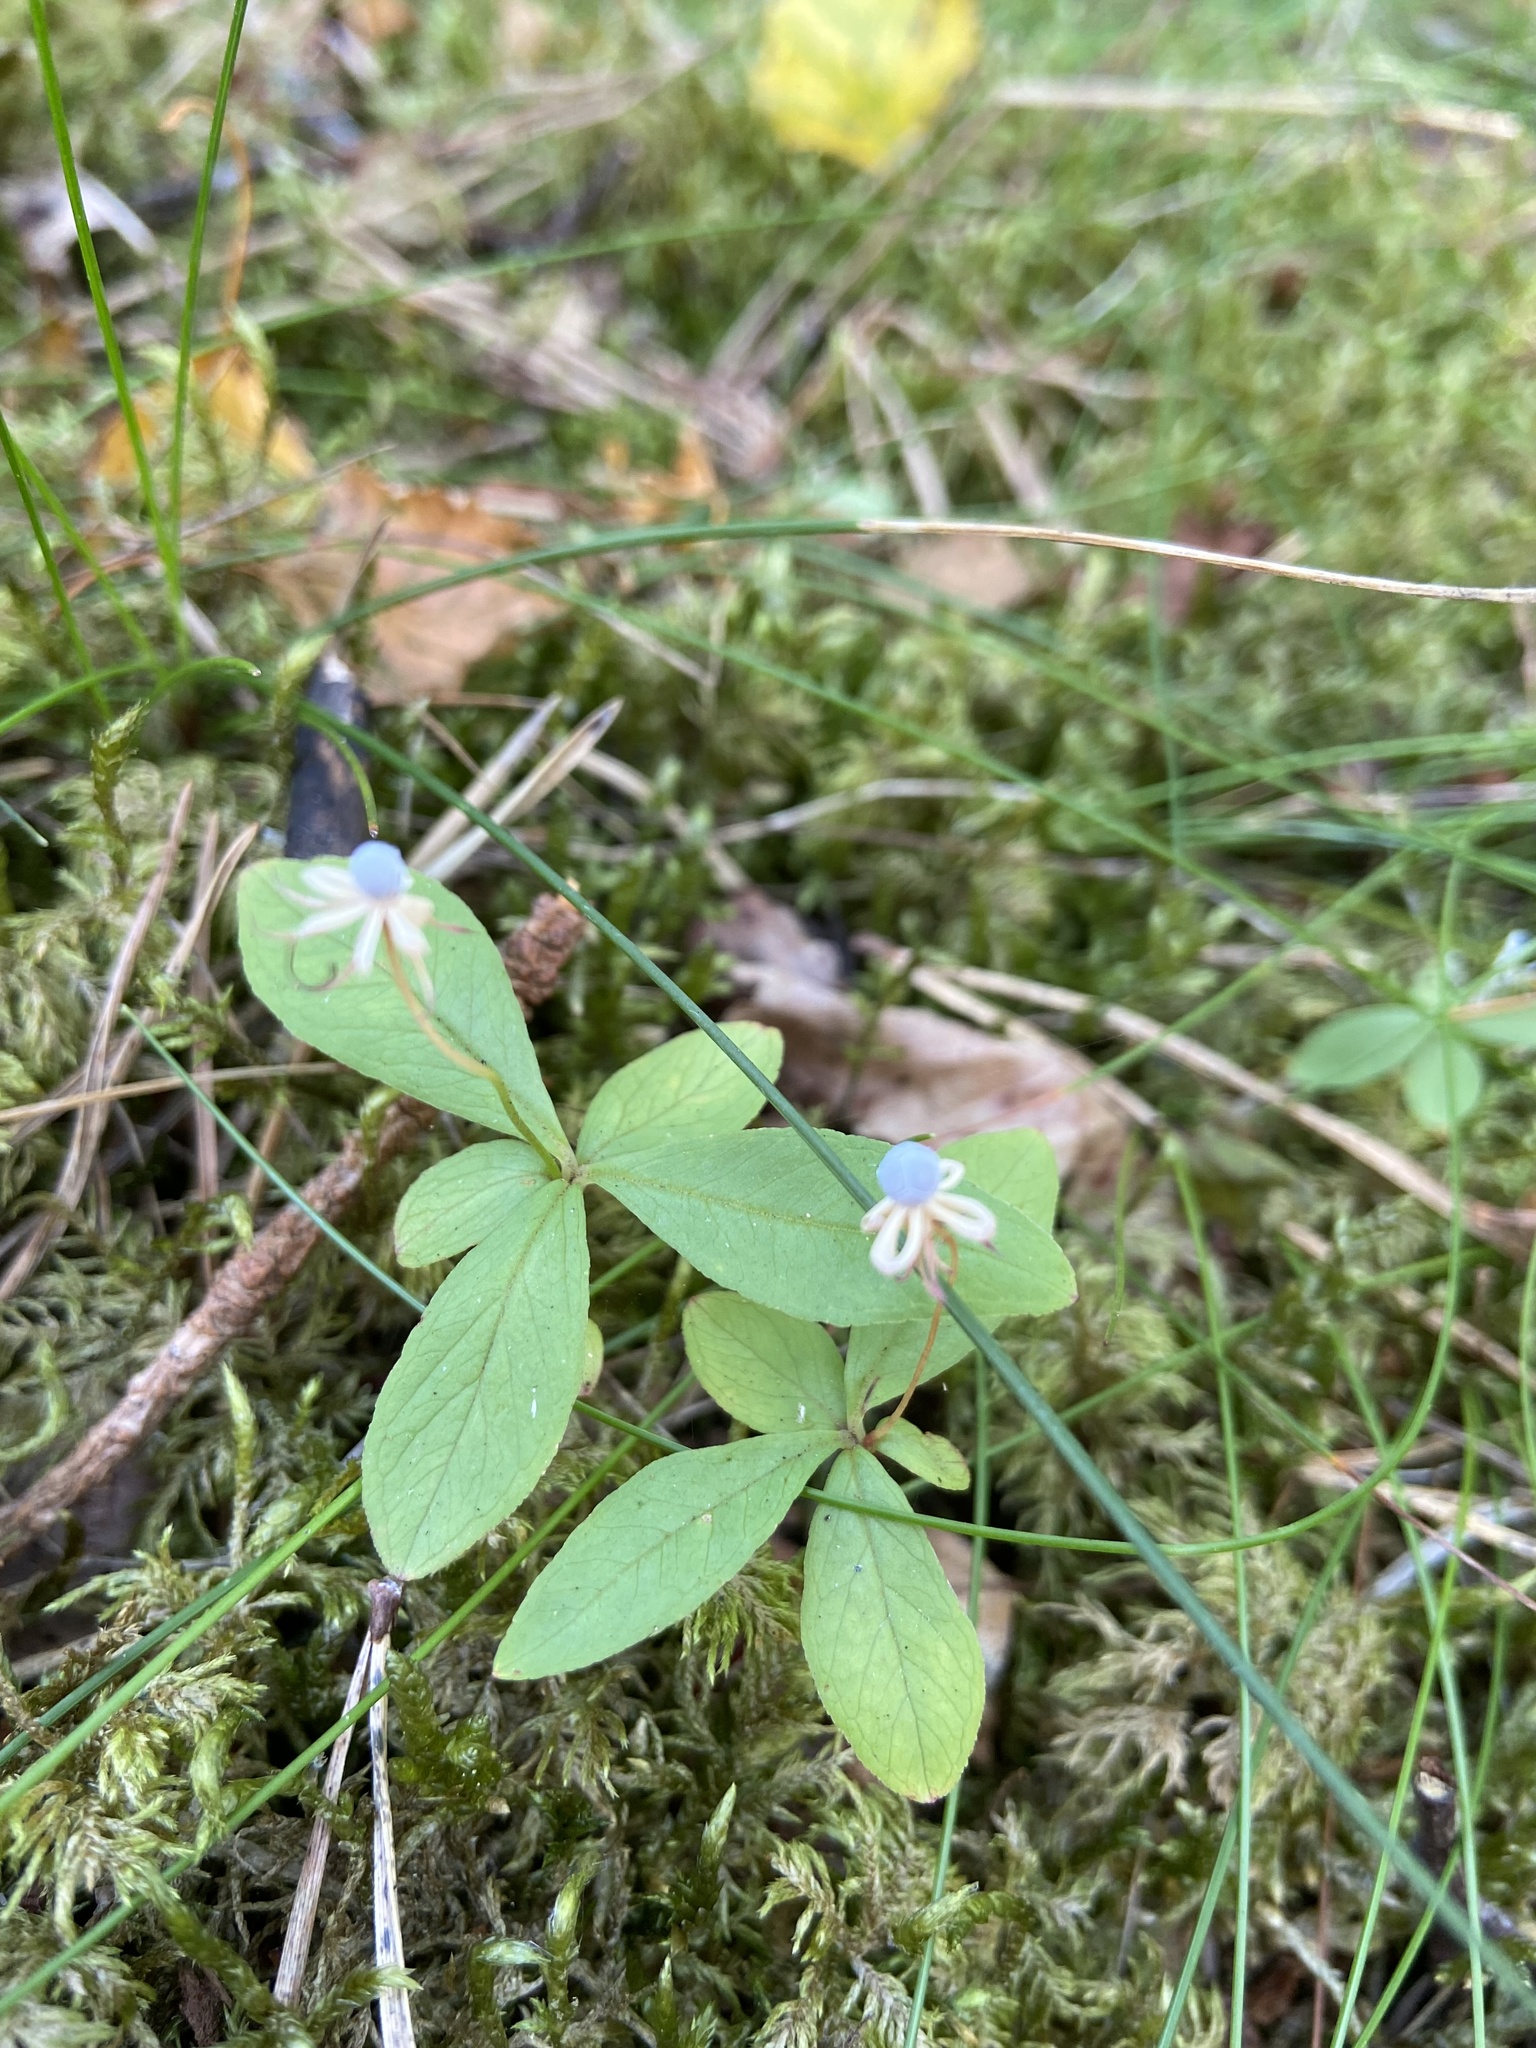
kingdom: Plantae
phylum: Tracheophyta
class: Magnoliopsida
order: Ericales
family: Primulaceae
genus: Lysimachia
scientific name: Lysimachia europaea
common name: Arctic starflower
